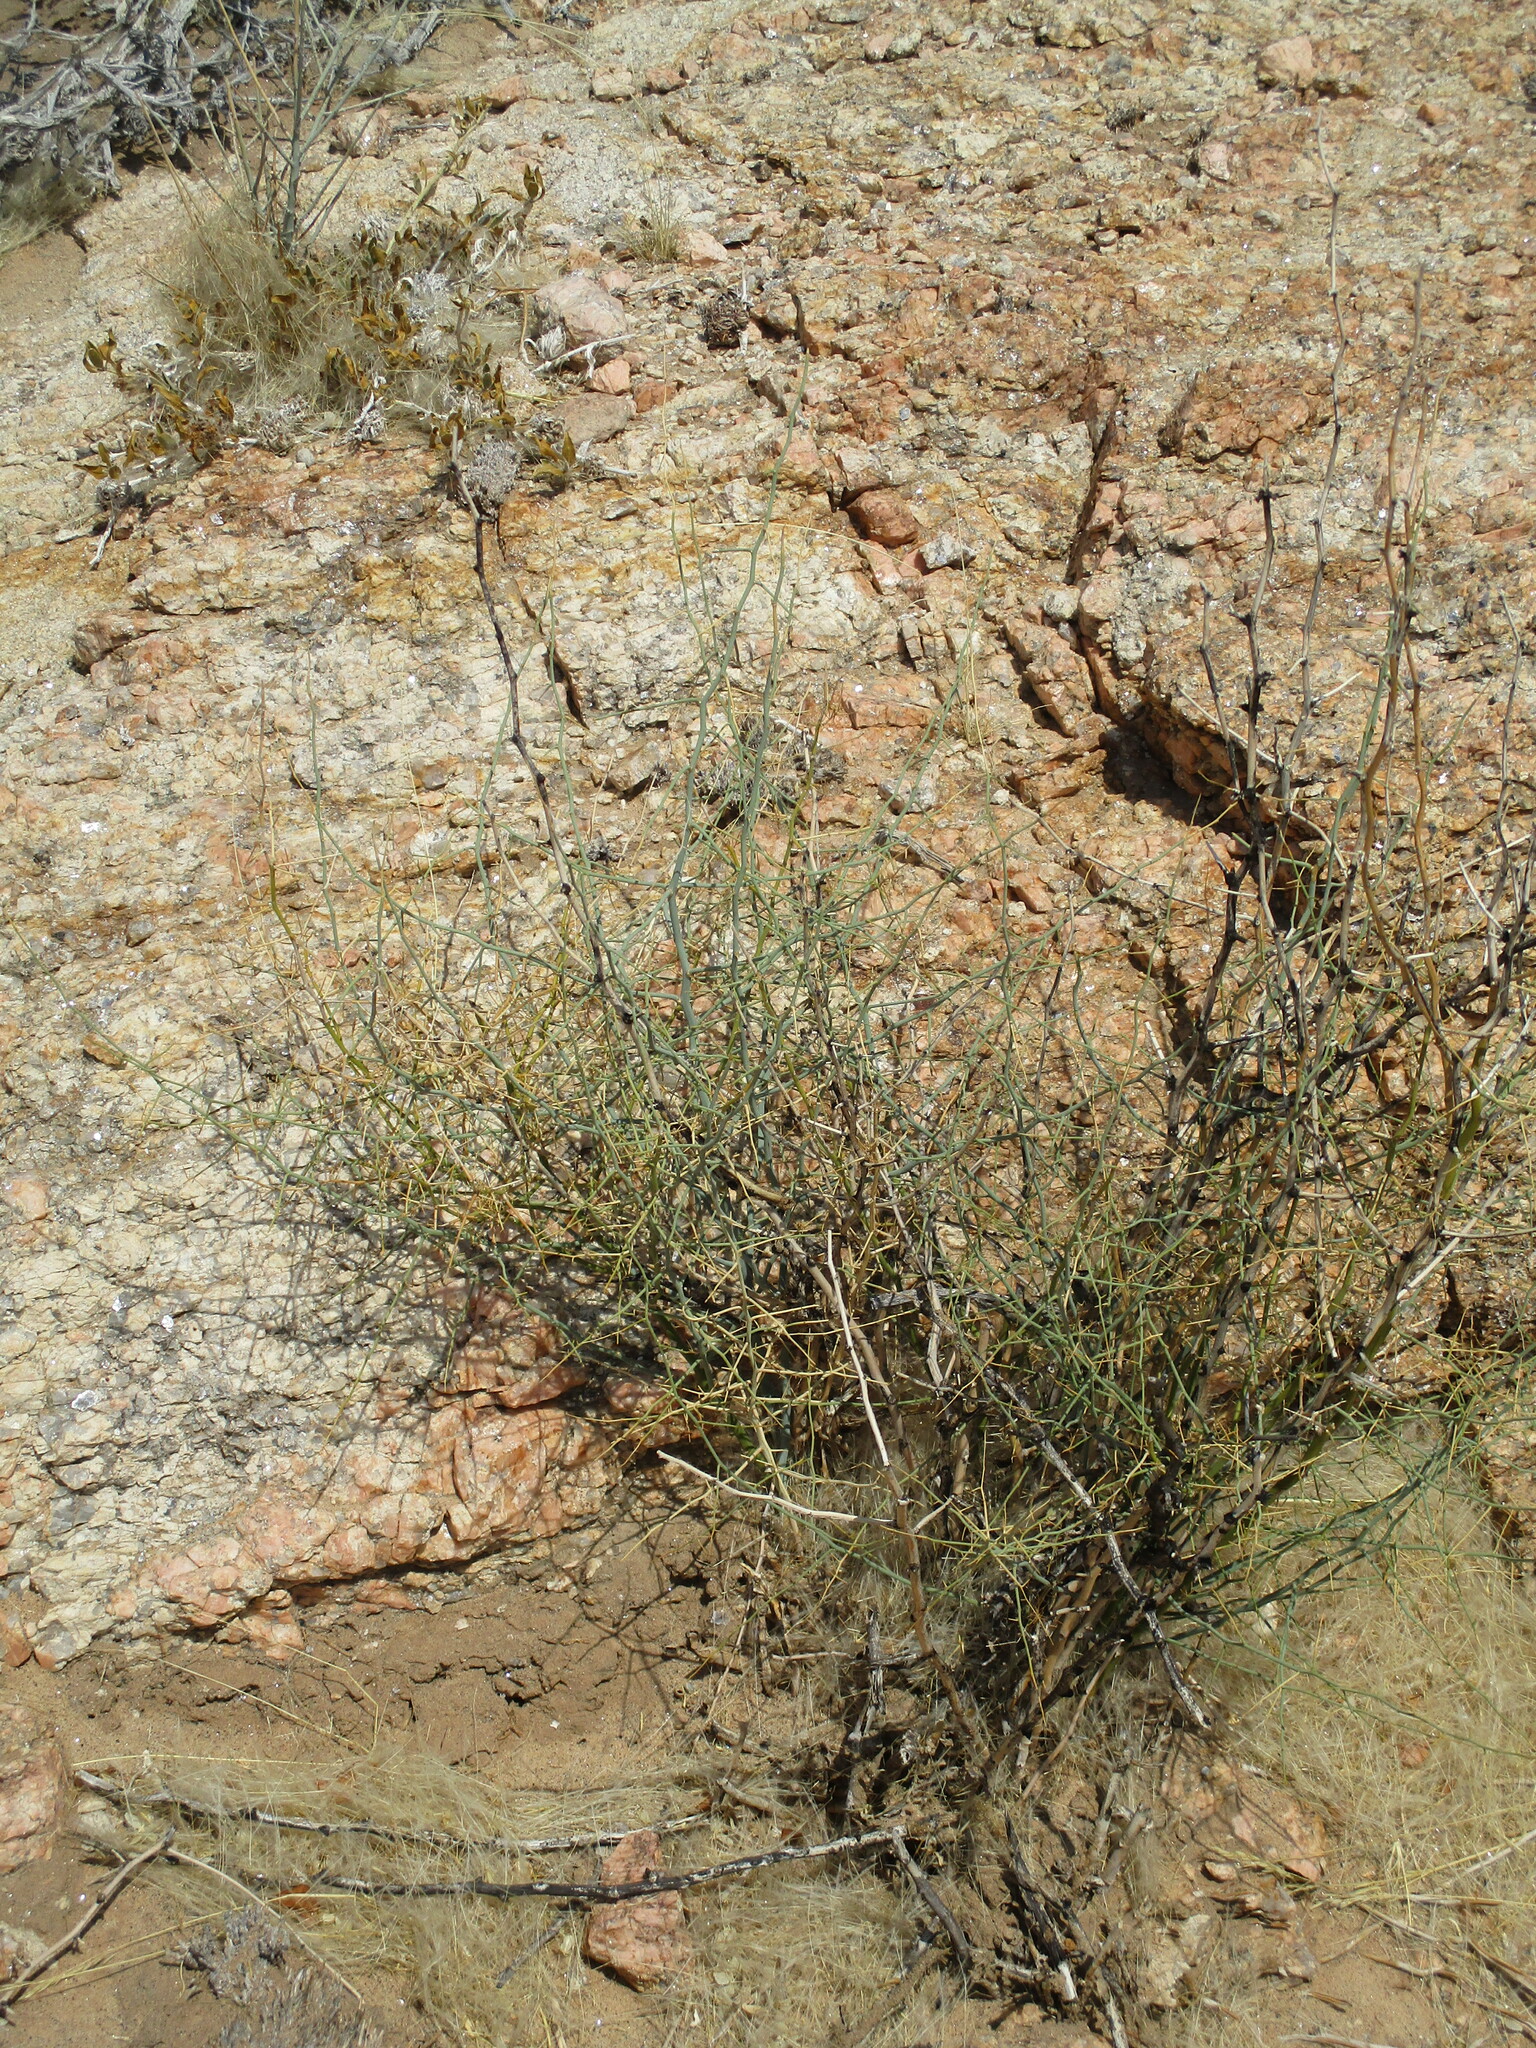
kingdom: Plantae
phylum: Tracheophyta
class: Liliopsida
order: Asparagales
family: Asparagaceae
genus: Asparagus
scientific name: Asparagus pearsonii
